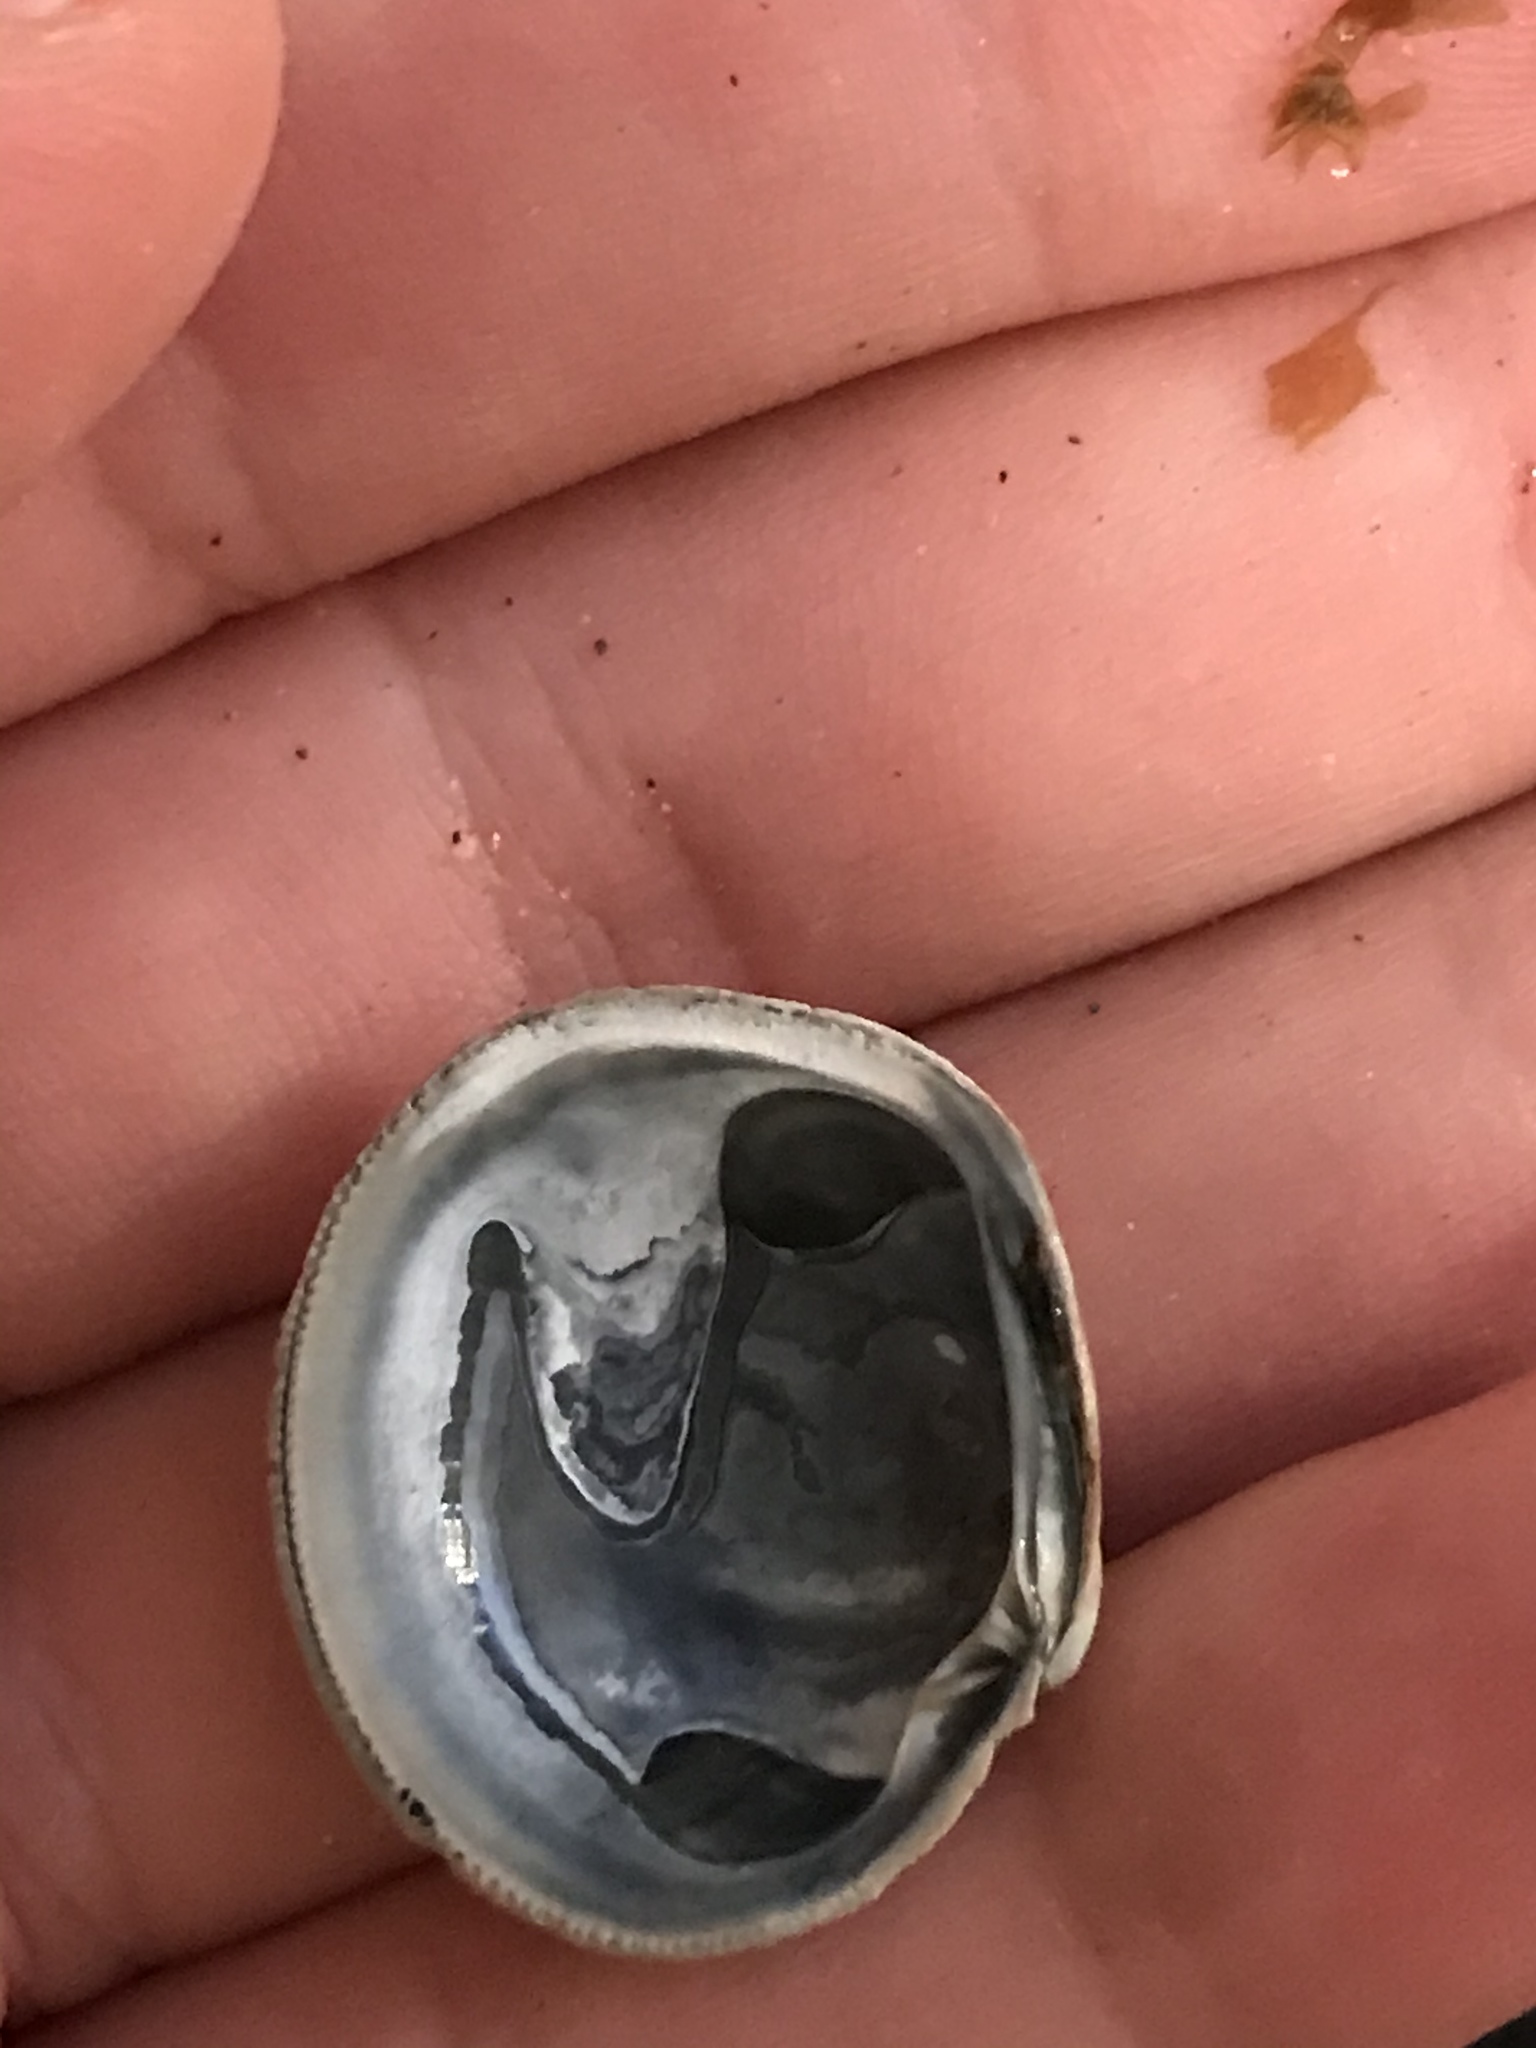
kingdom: Animalia
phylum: Mollusca
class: Bivalvia
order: Venerida
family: Veneridae
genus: Leukoma
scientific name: Leukoma staminea
